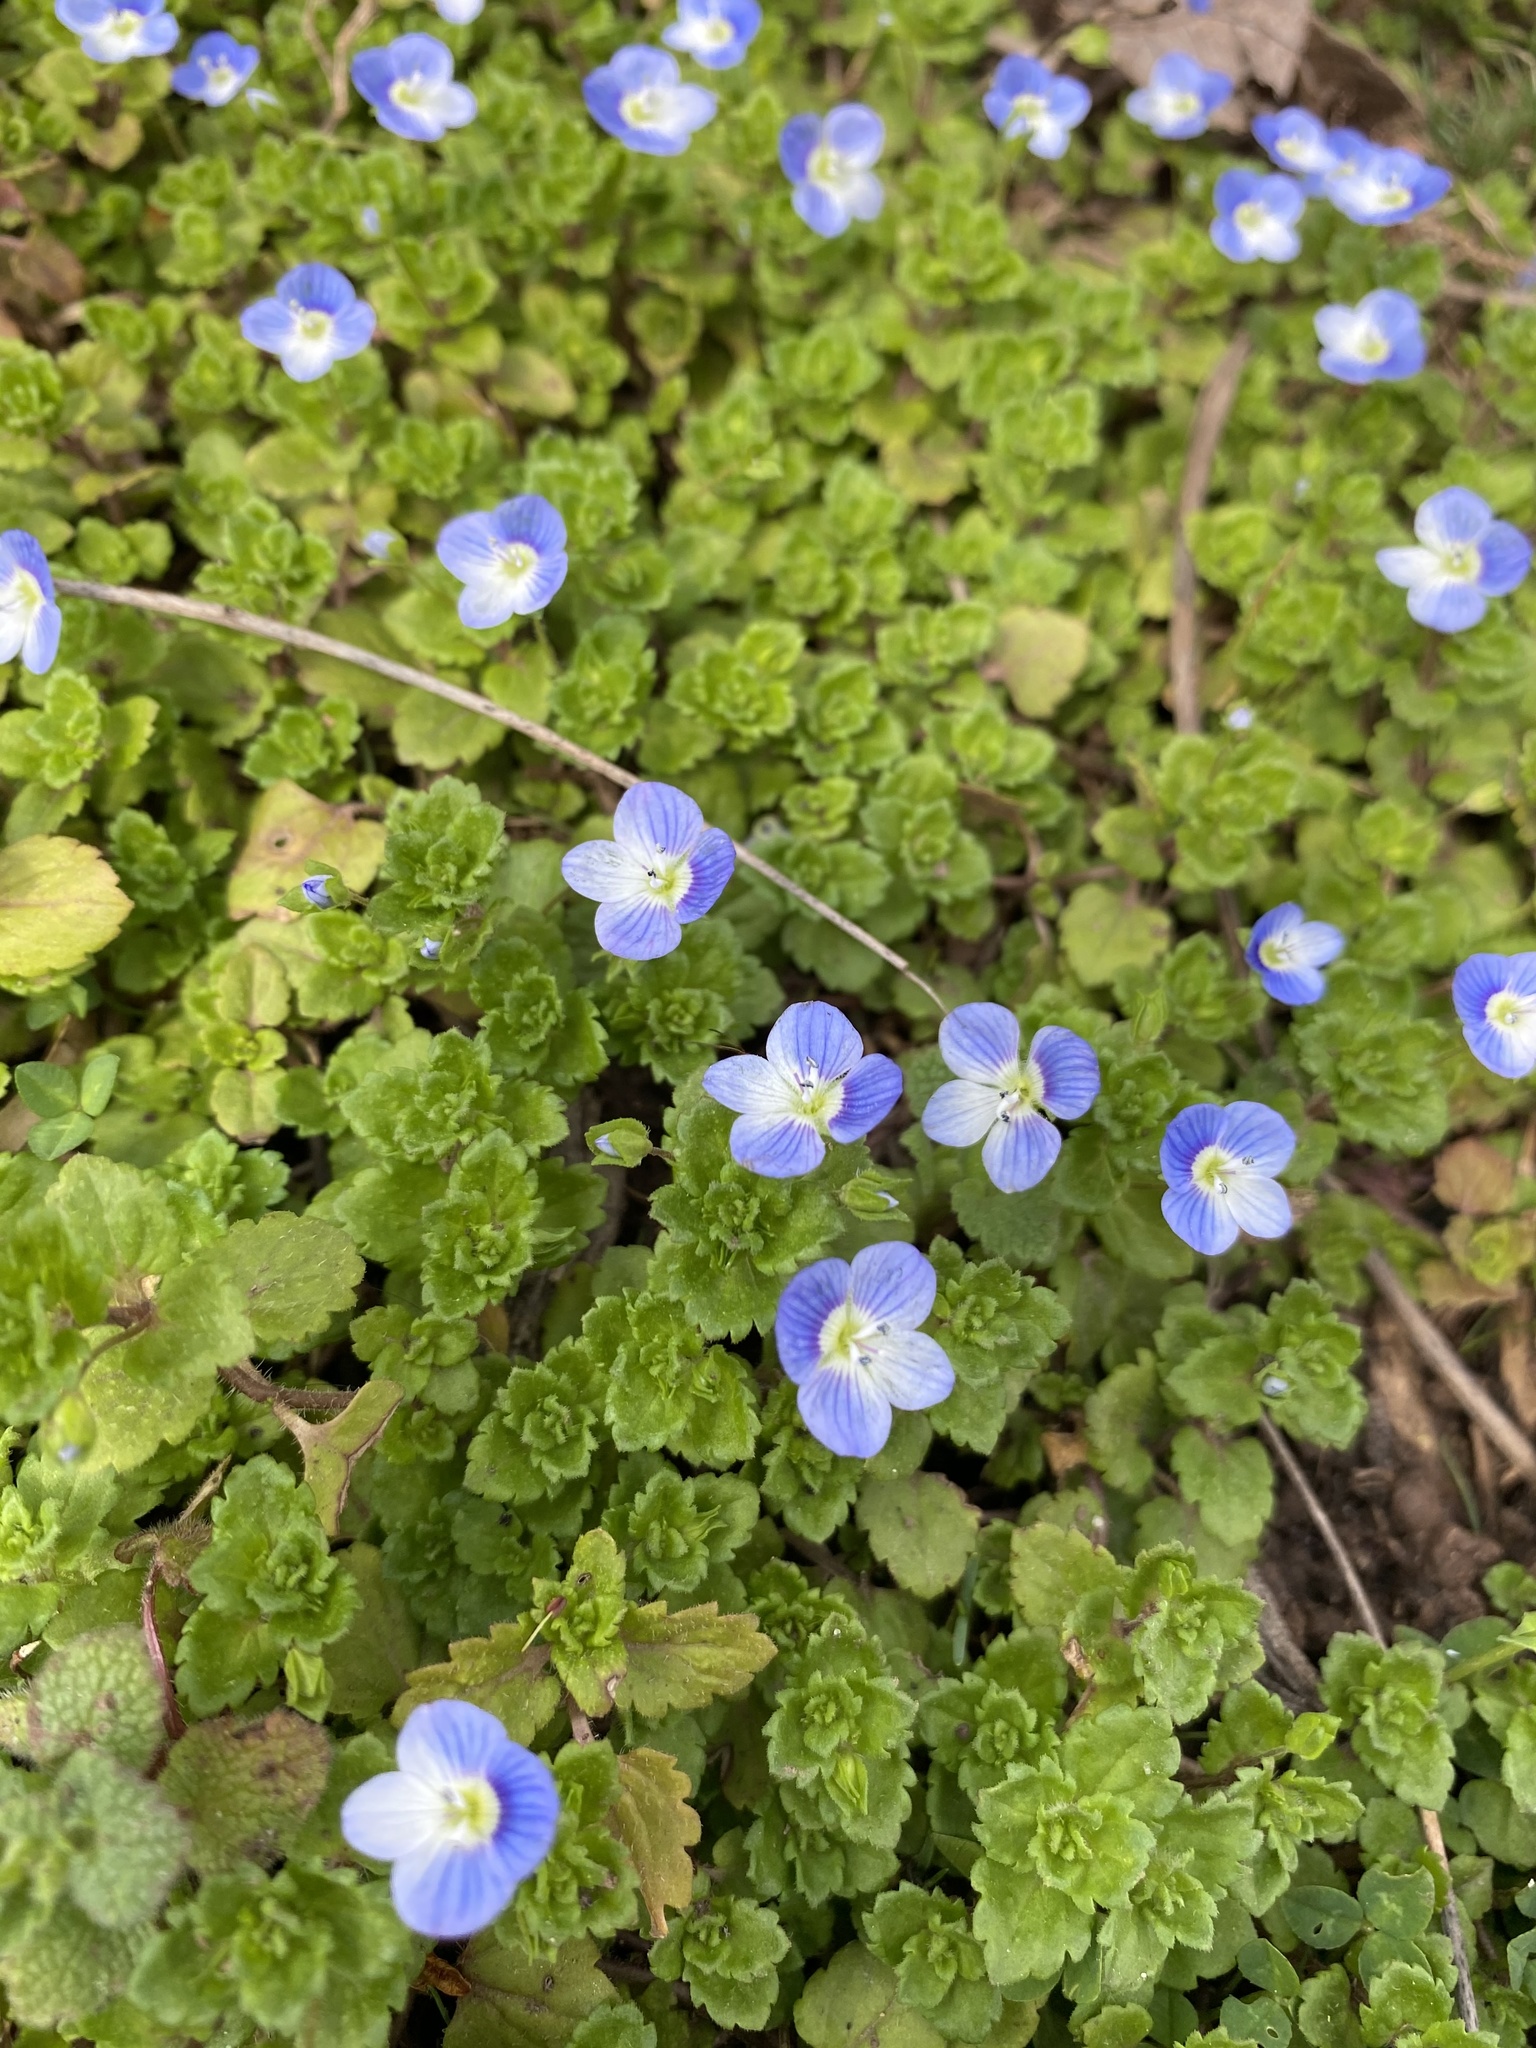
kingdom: Plantae
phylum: Tracheophyta
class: Magnoliopsida
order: Lamiales
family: Plantaginaceae
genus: Veronica
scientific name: Veronica persica
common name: Common field-speedwell
